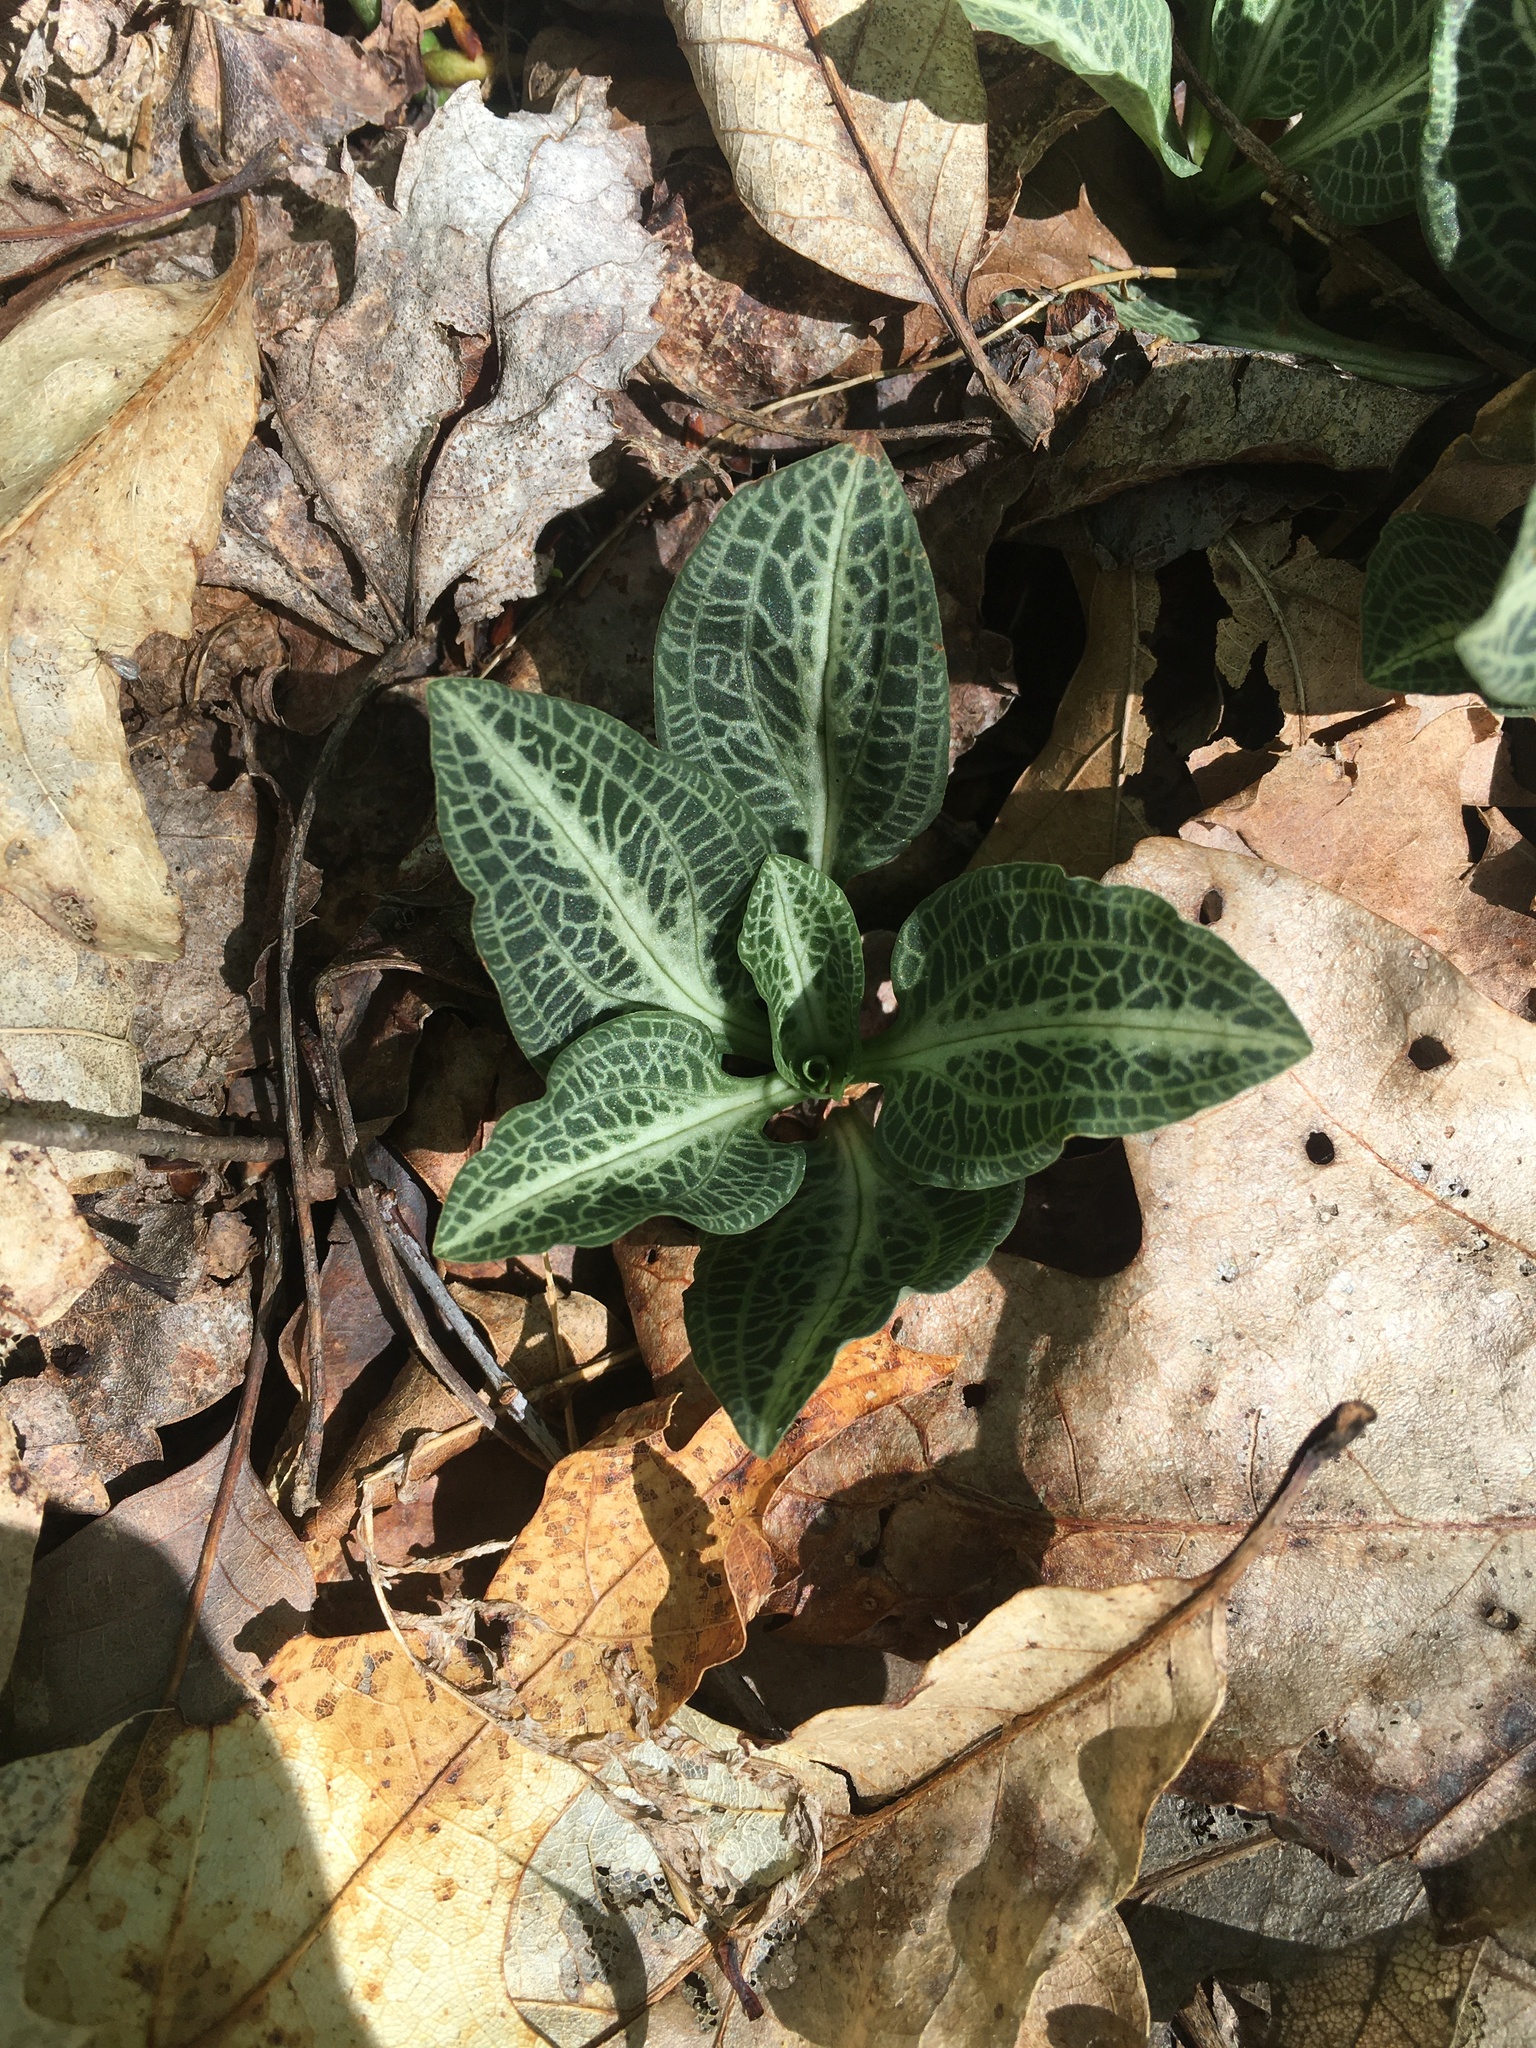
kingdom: Plantae
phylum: Tracheophyta
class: Liliopsida
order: Asparagales
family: Orchidaceae
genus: Goodyera
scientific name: Goodyera pubescens
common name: Downy rattlesnake-plantain
